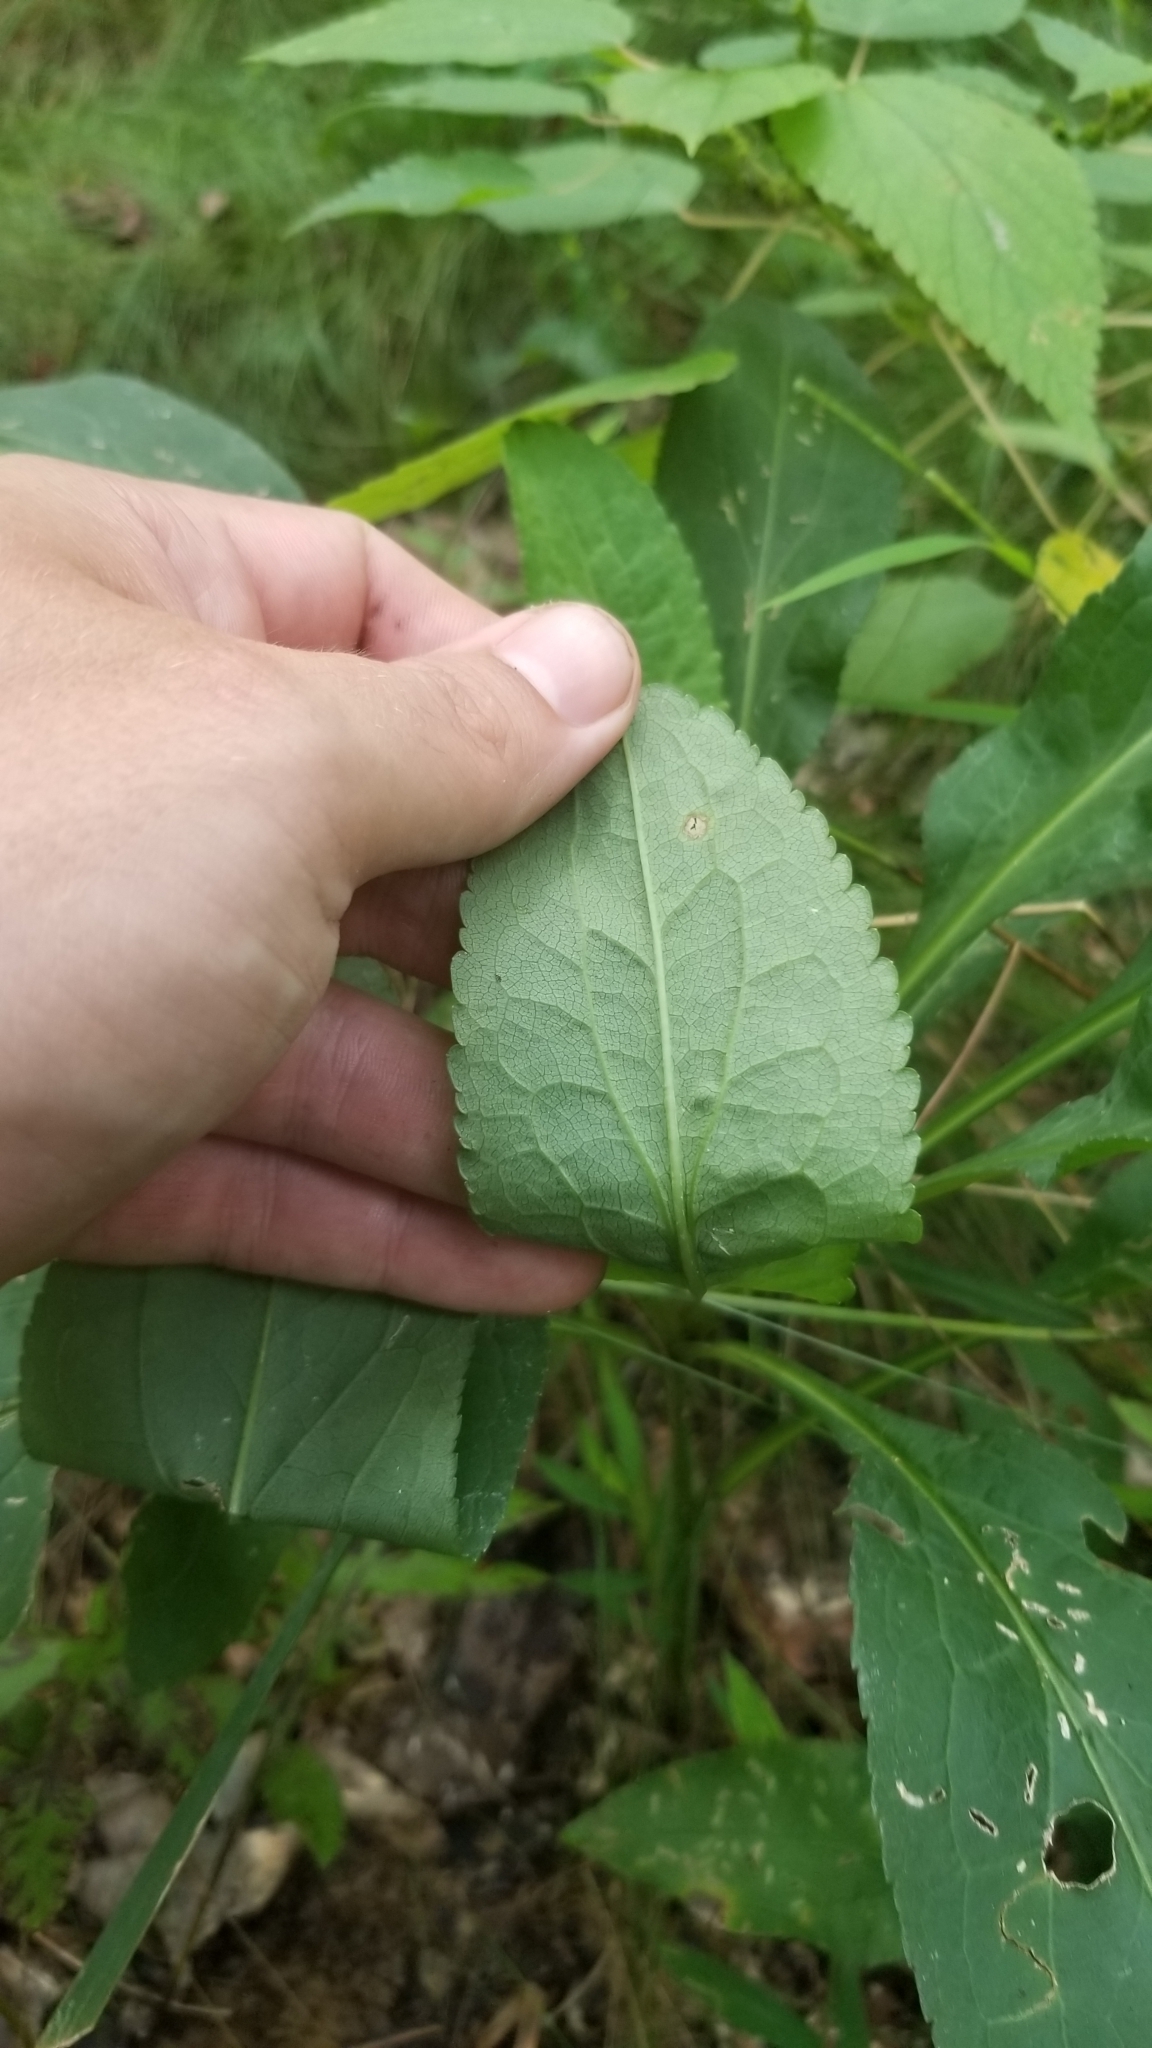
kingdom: Plantae
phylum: Tracheophyta
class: Magnoliopsida
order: Asterales
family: Asteraceae
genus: Solidago
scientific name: Solidago patula
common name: Rough-leaf goldenrod
